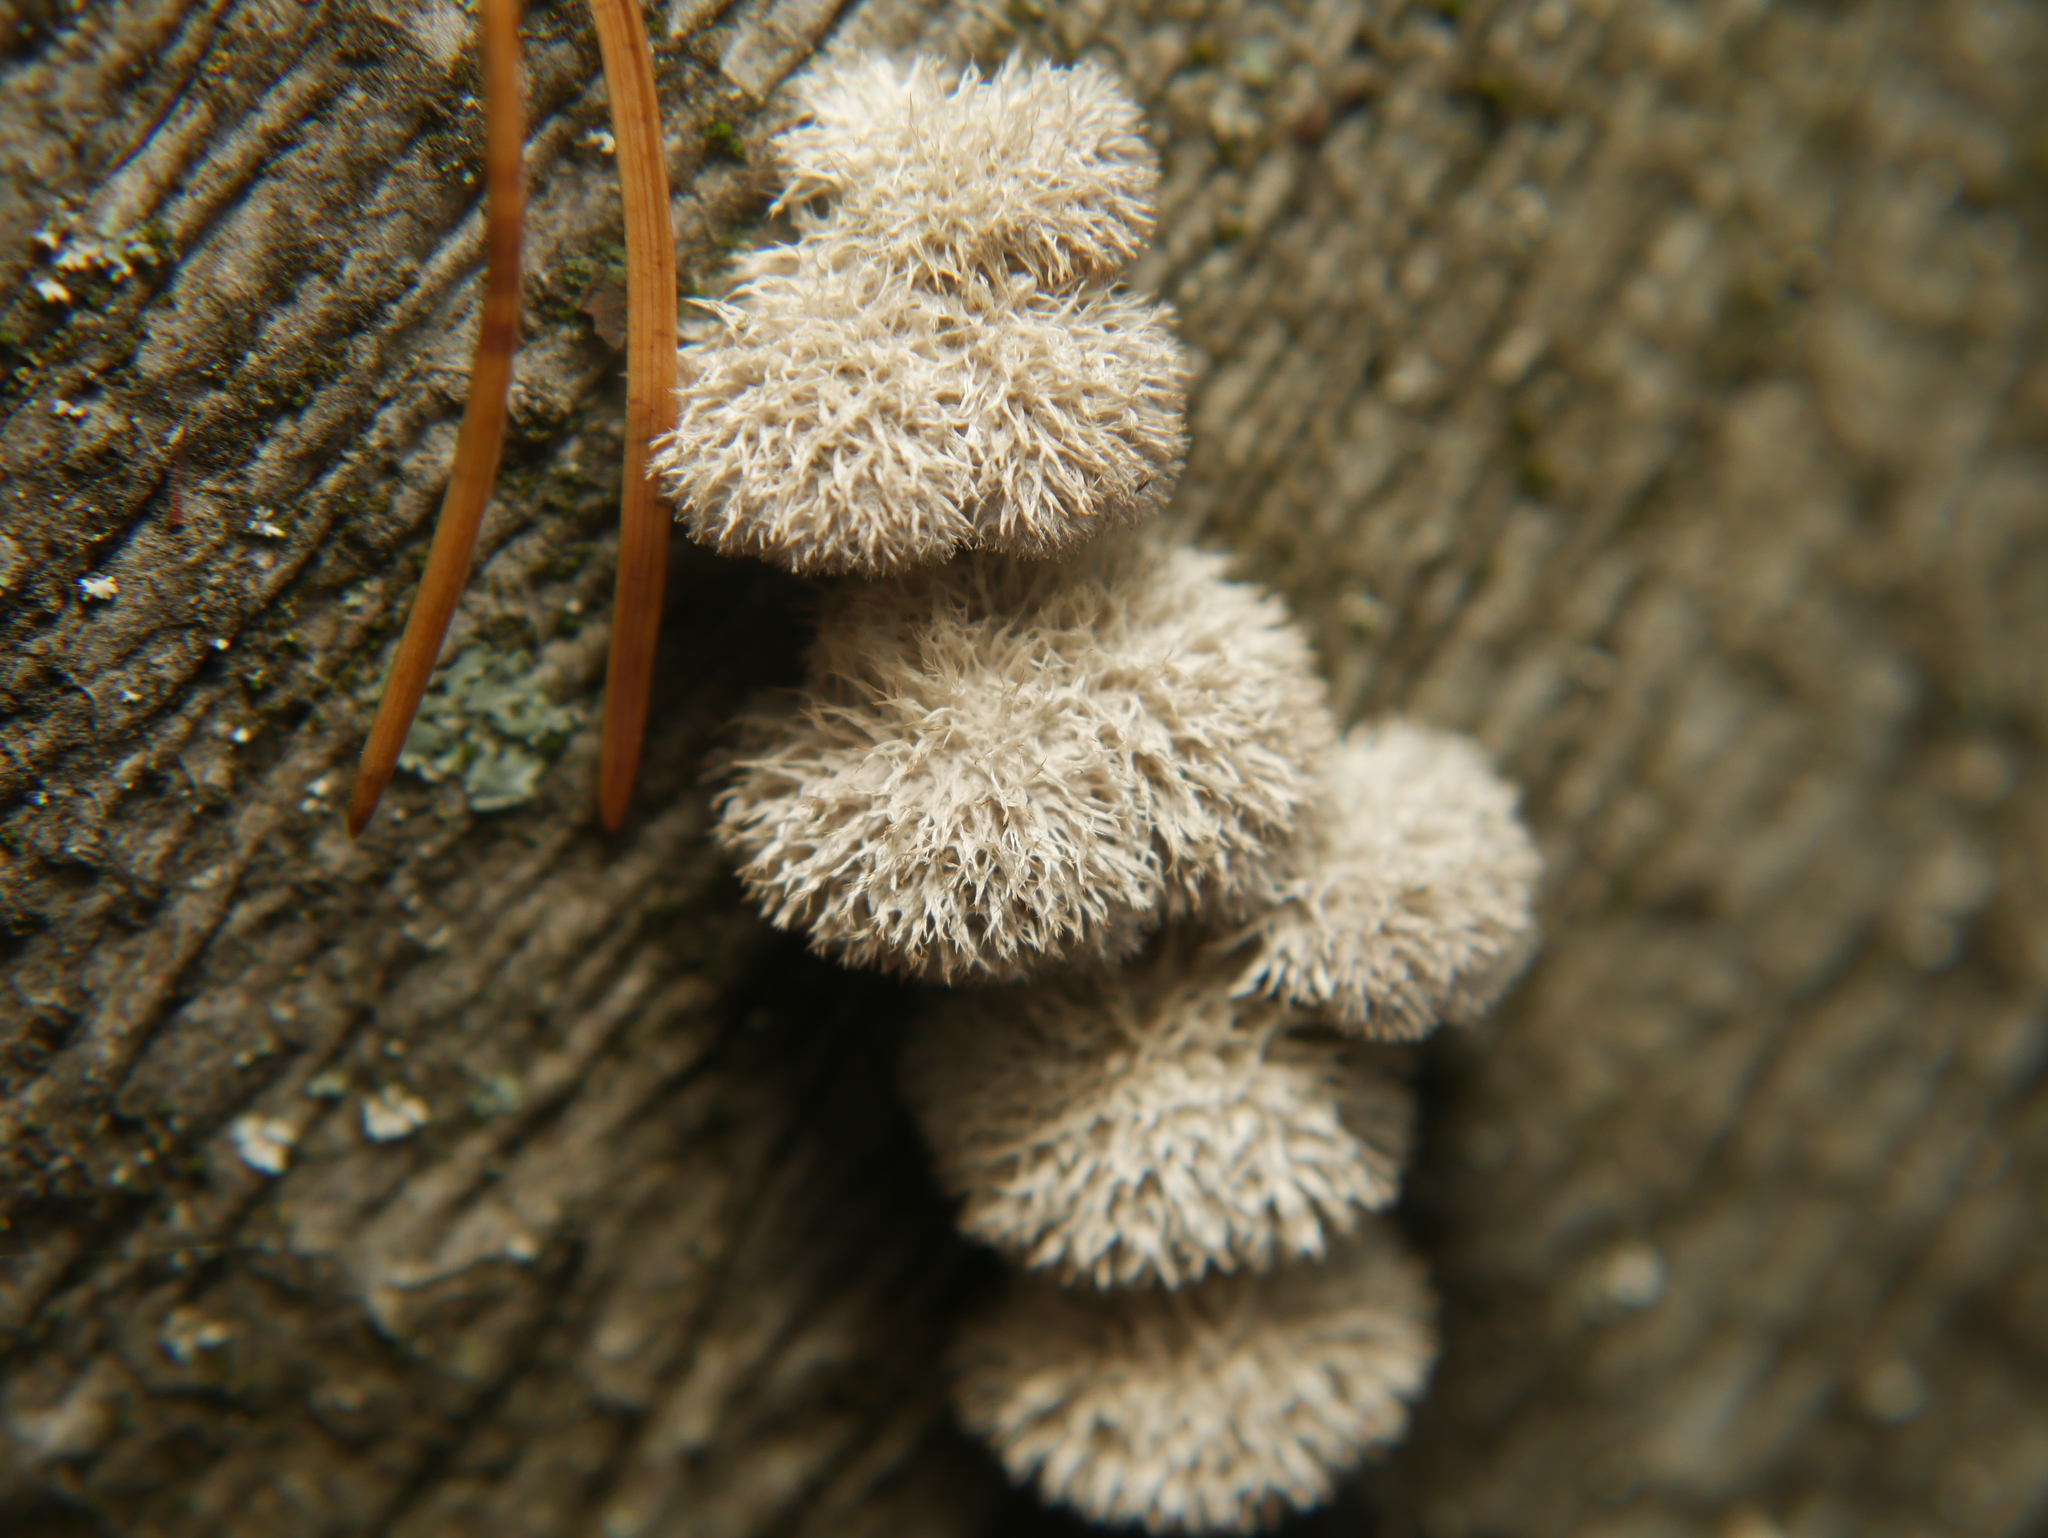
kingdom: Fungi
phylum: Basidiomycota
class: Agaricomycetes
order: Agaricales
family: Schizophyllaceae
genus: Schizophyllum
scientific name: Schizophyllum commune
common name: Common porecrust
